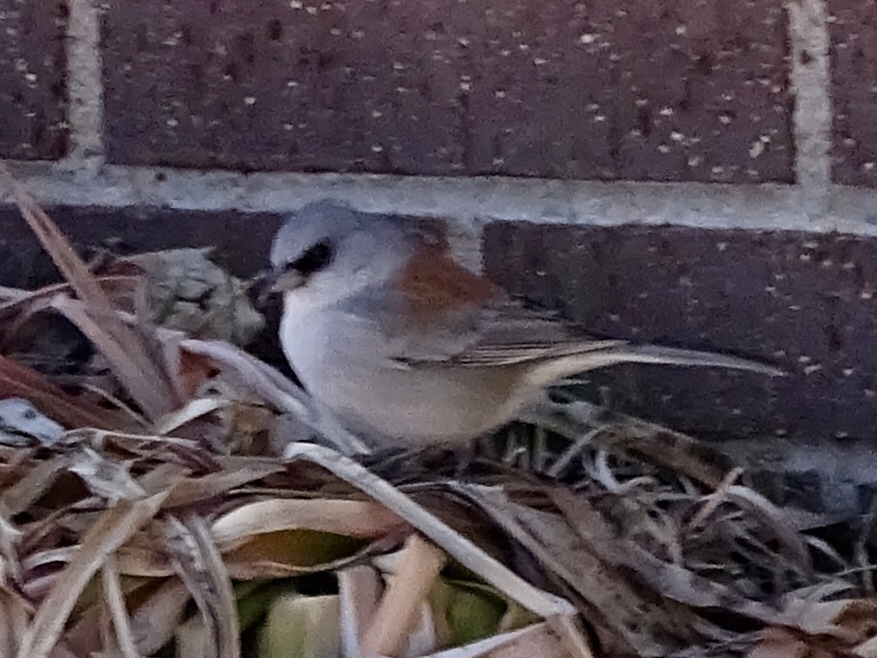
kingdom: Animalia
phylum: Chordata
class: Aves
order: Passeriformes
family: Passerellidae
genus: Junco
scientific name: Junco hyemalis
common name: Dark-eyed junco
